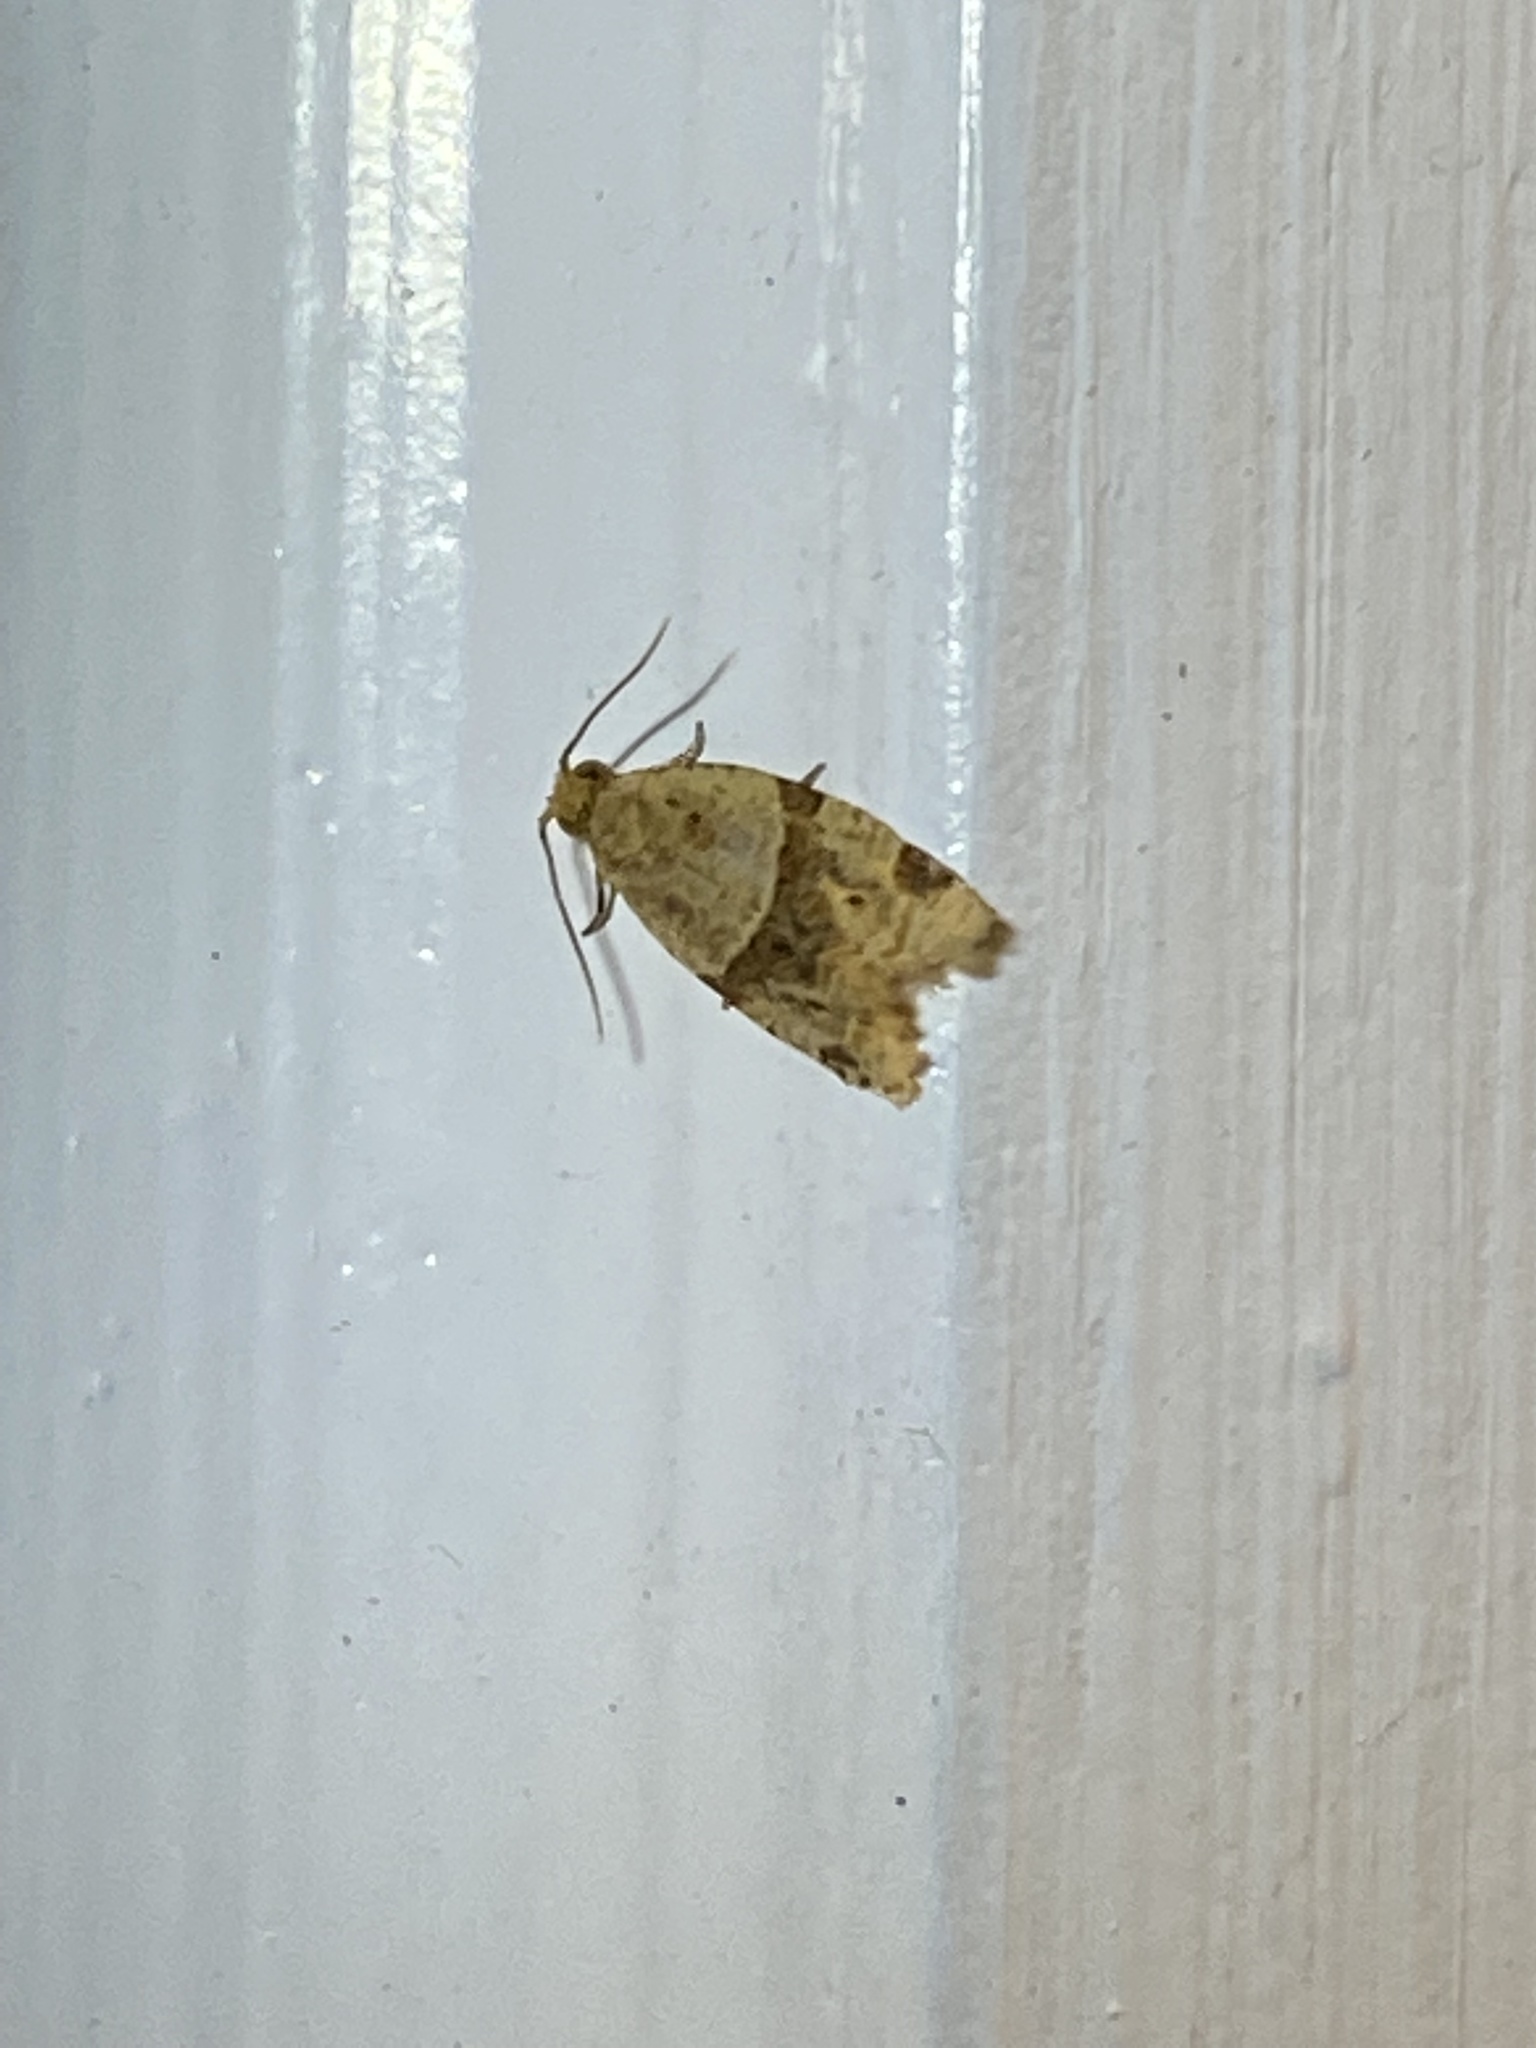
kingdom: Animalia
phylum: Arthropoda
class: Insecta
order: Lepidoptera
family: Tortricidae
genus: Clepsis
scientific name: Clepsis peritana
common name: Garden tortrix
